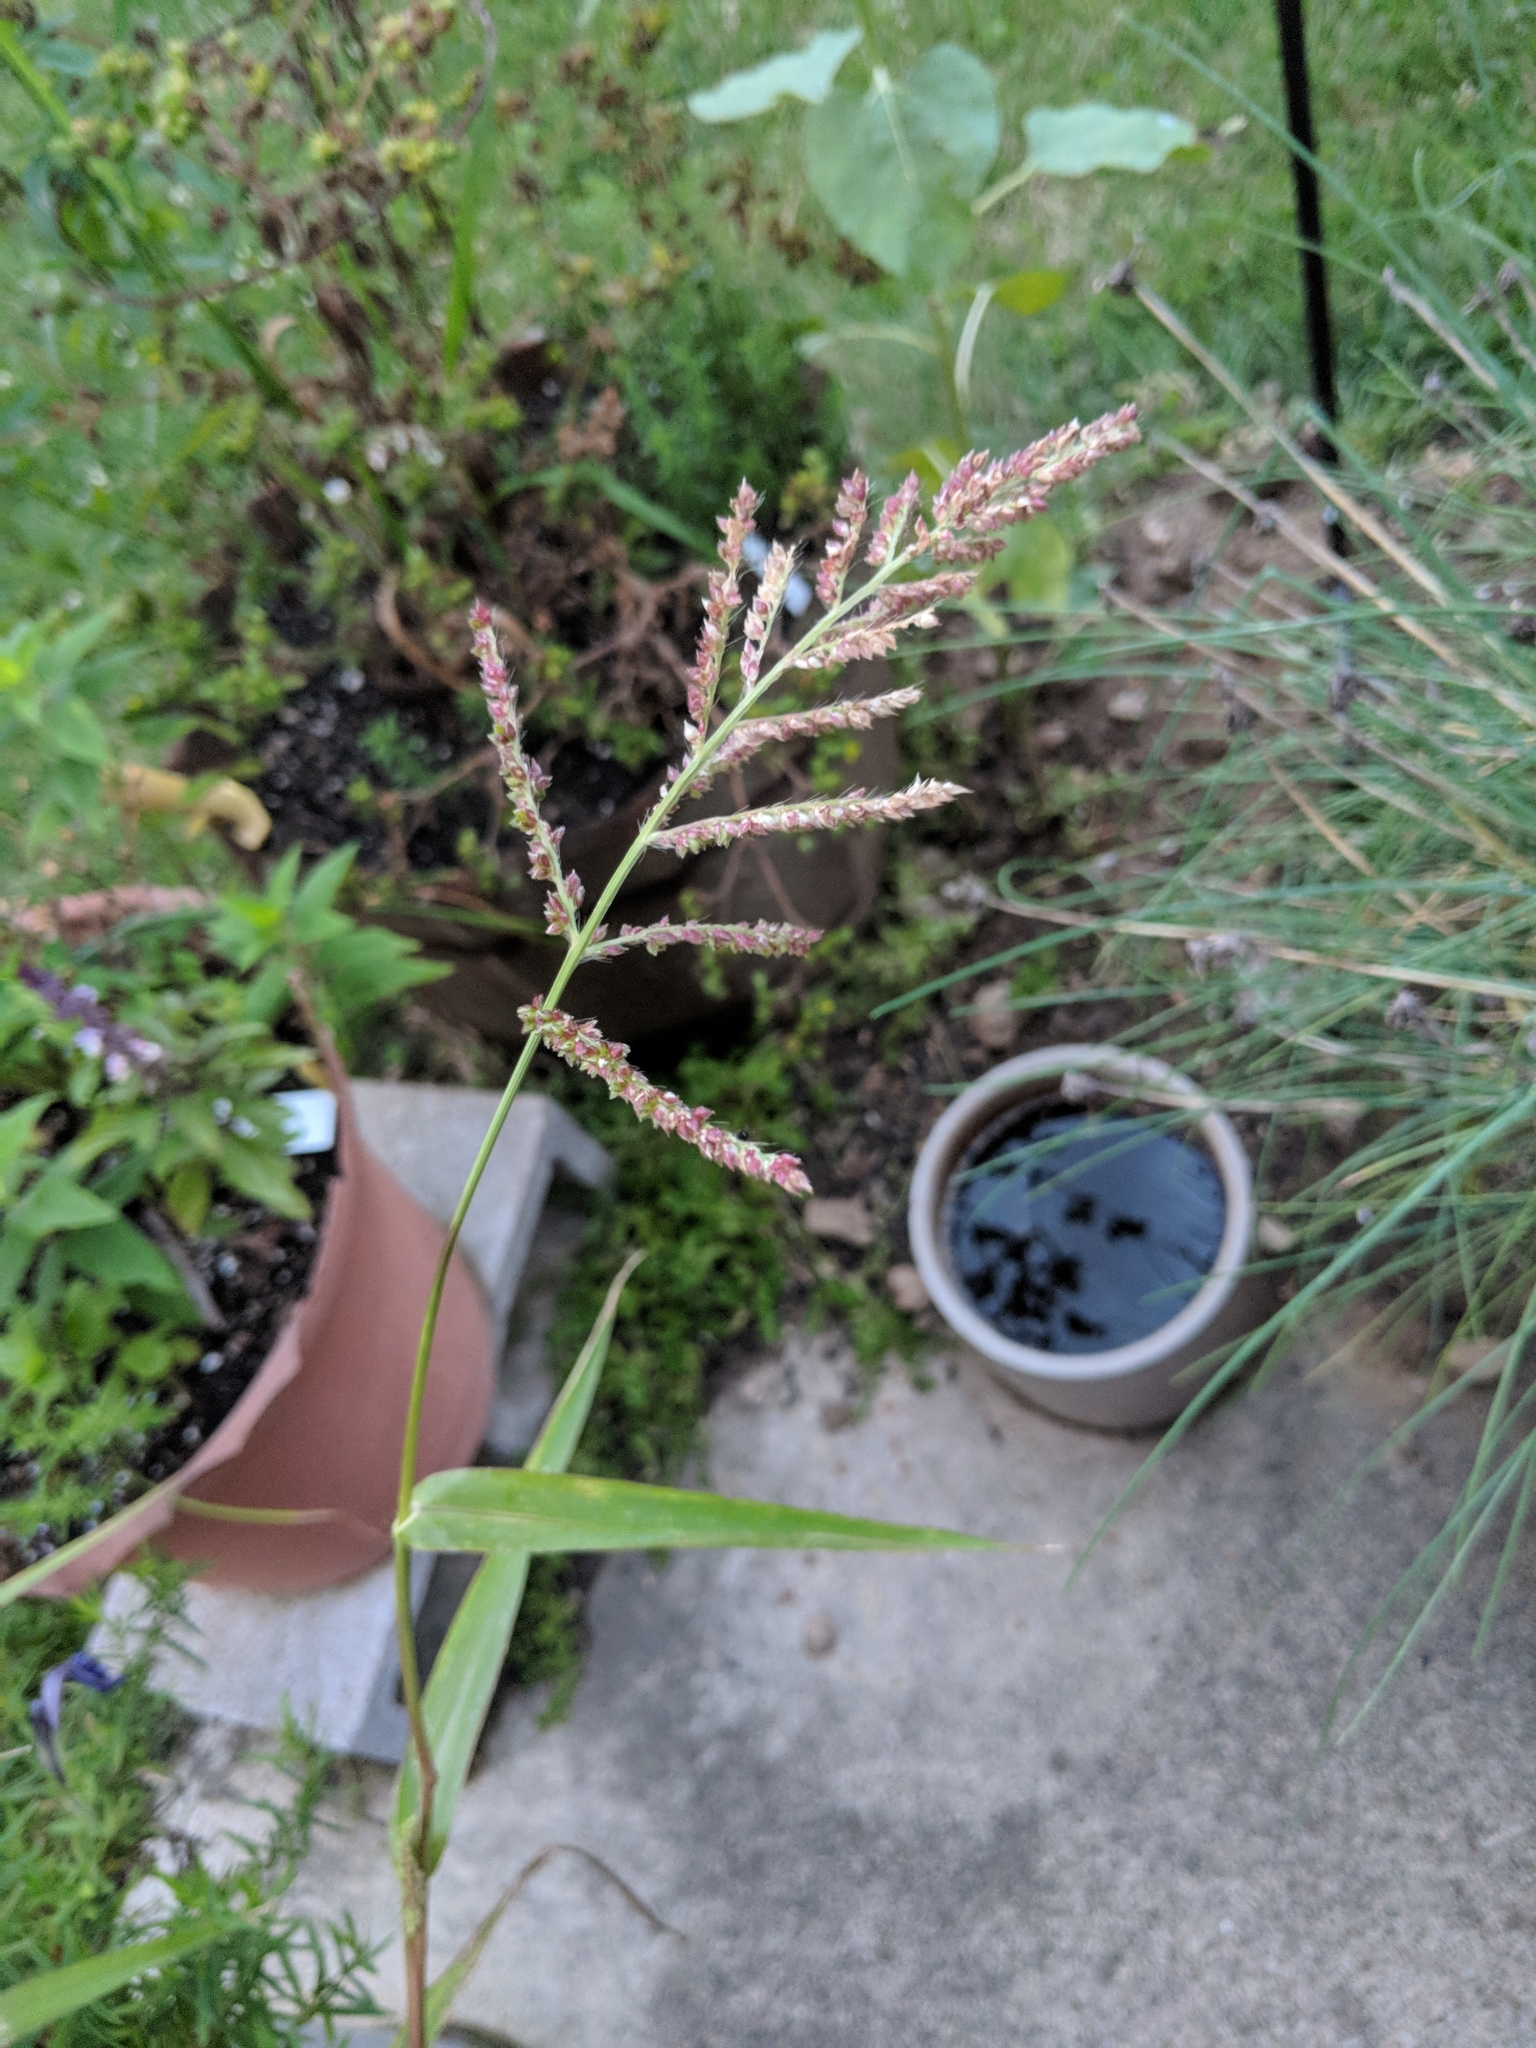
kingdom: Plantae
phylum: Tracheophyta
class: Liliopsida
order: Poales
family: Poaceae
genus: Echinochloa
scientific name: Echinochloa crus-galli
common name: Cockspur
